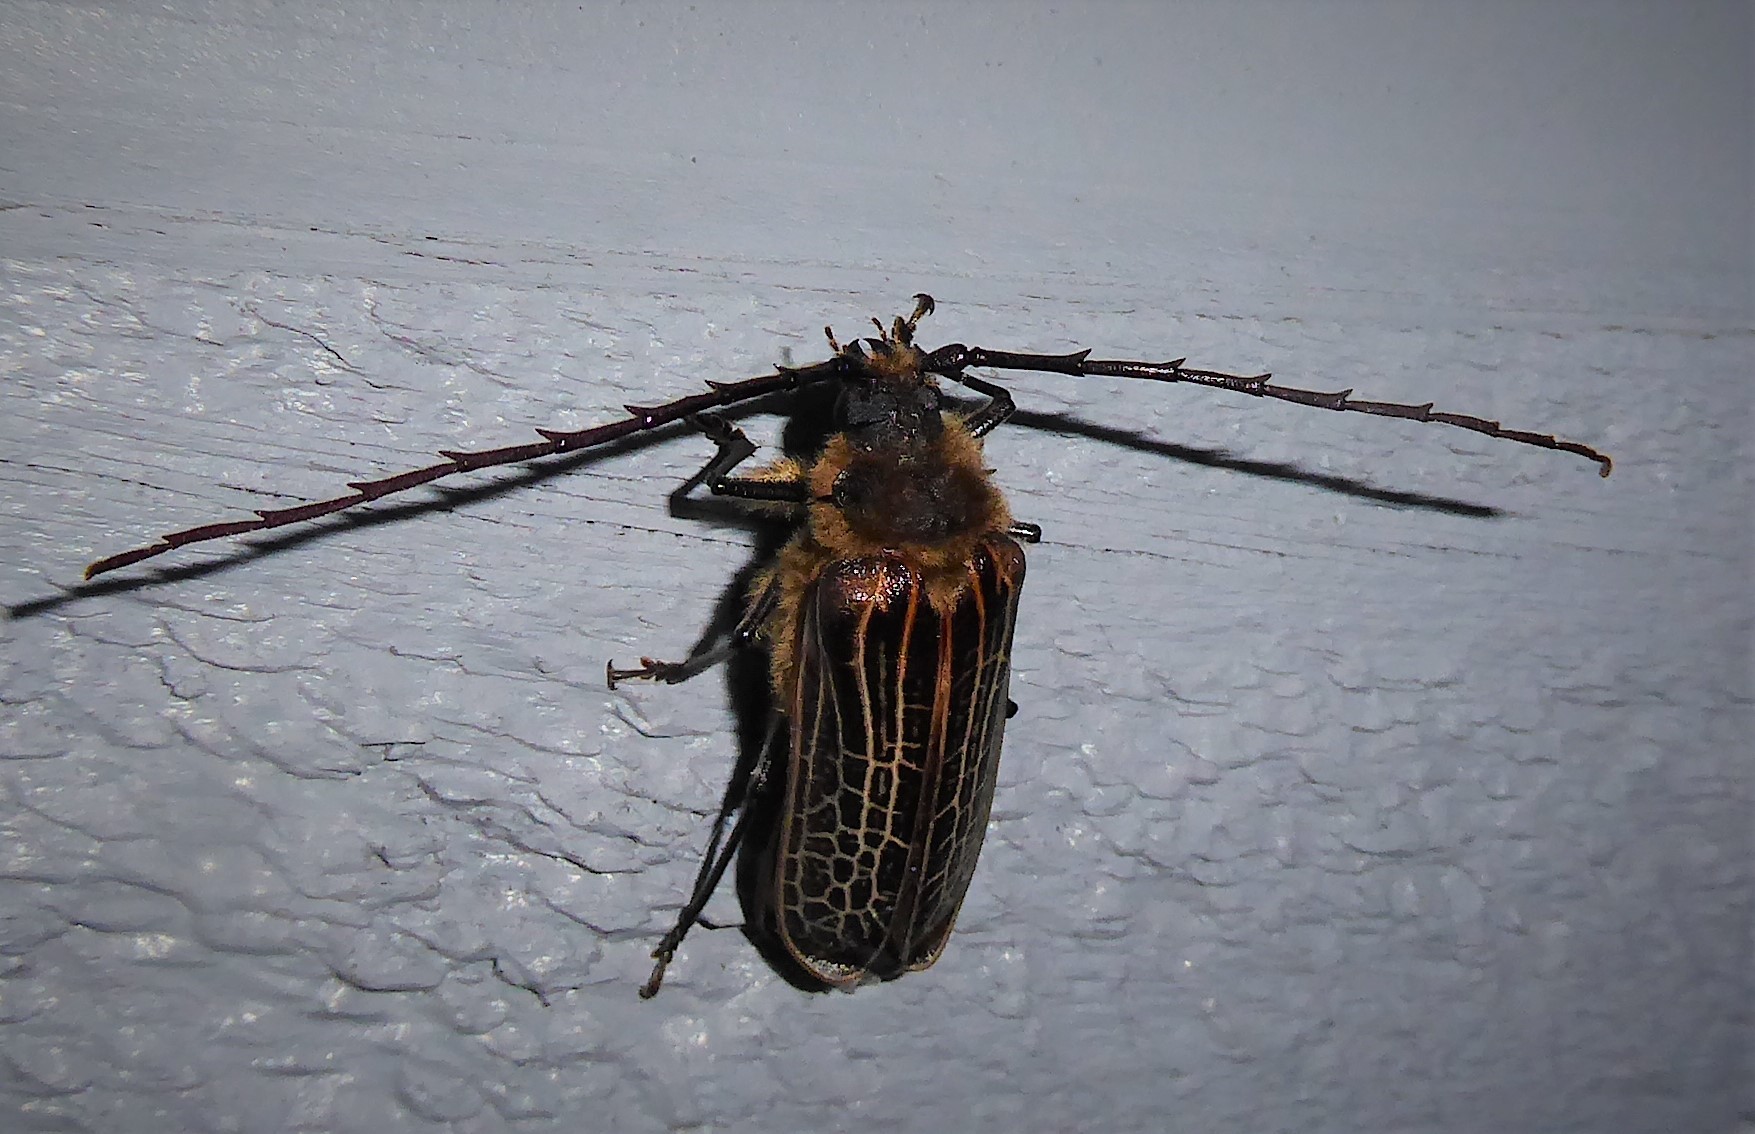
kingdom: Animalia
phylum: Arthropoda
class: Insecta
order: Coleoptera
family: Cerambycidae
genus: Prionoplus
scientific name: Prionoplus reticularis
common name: Huhu beetle
